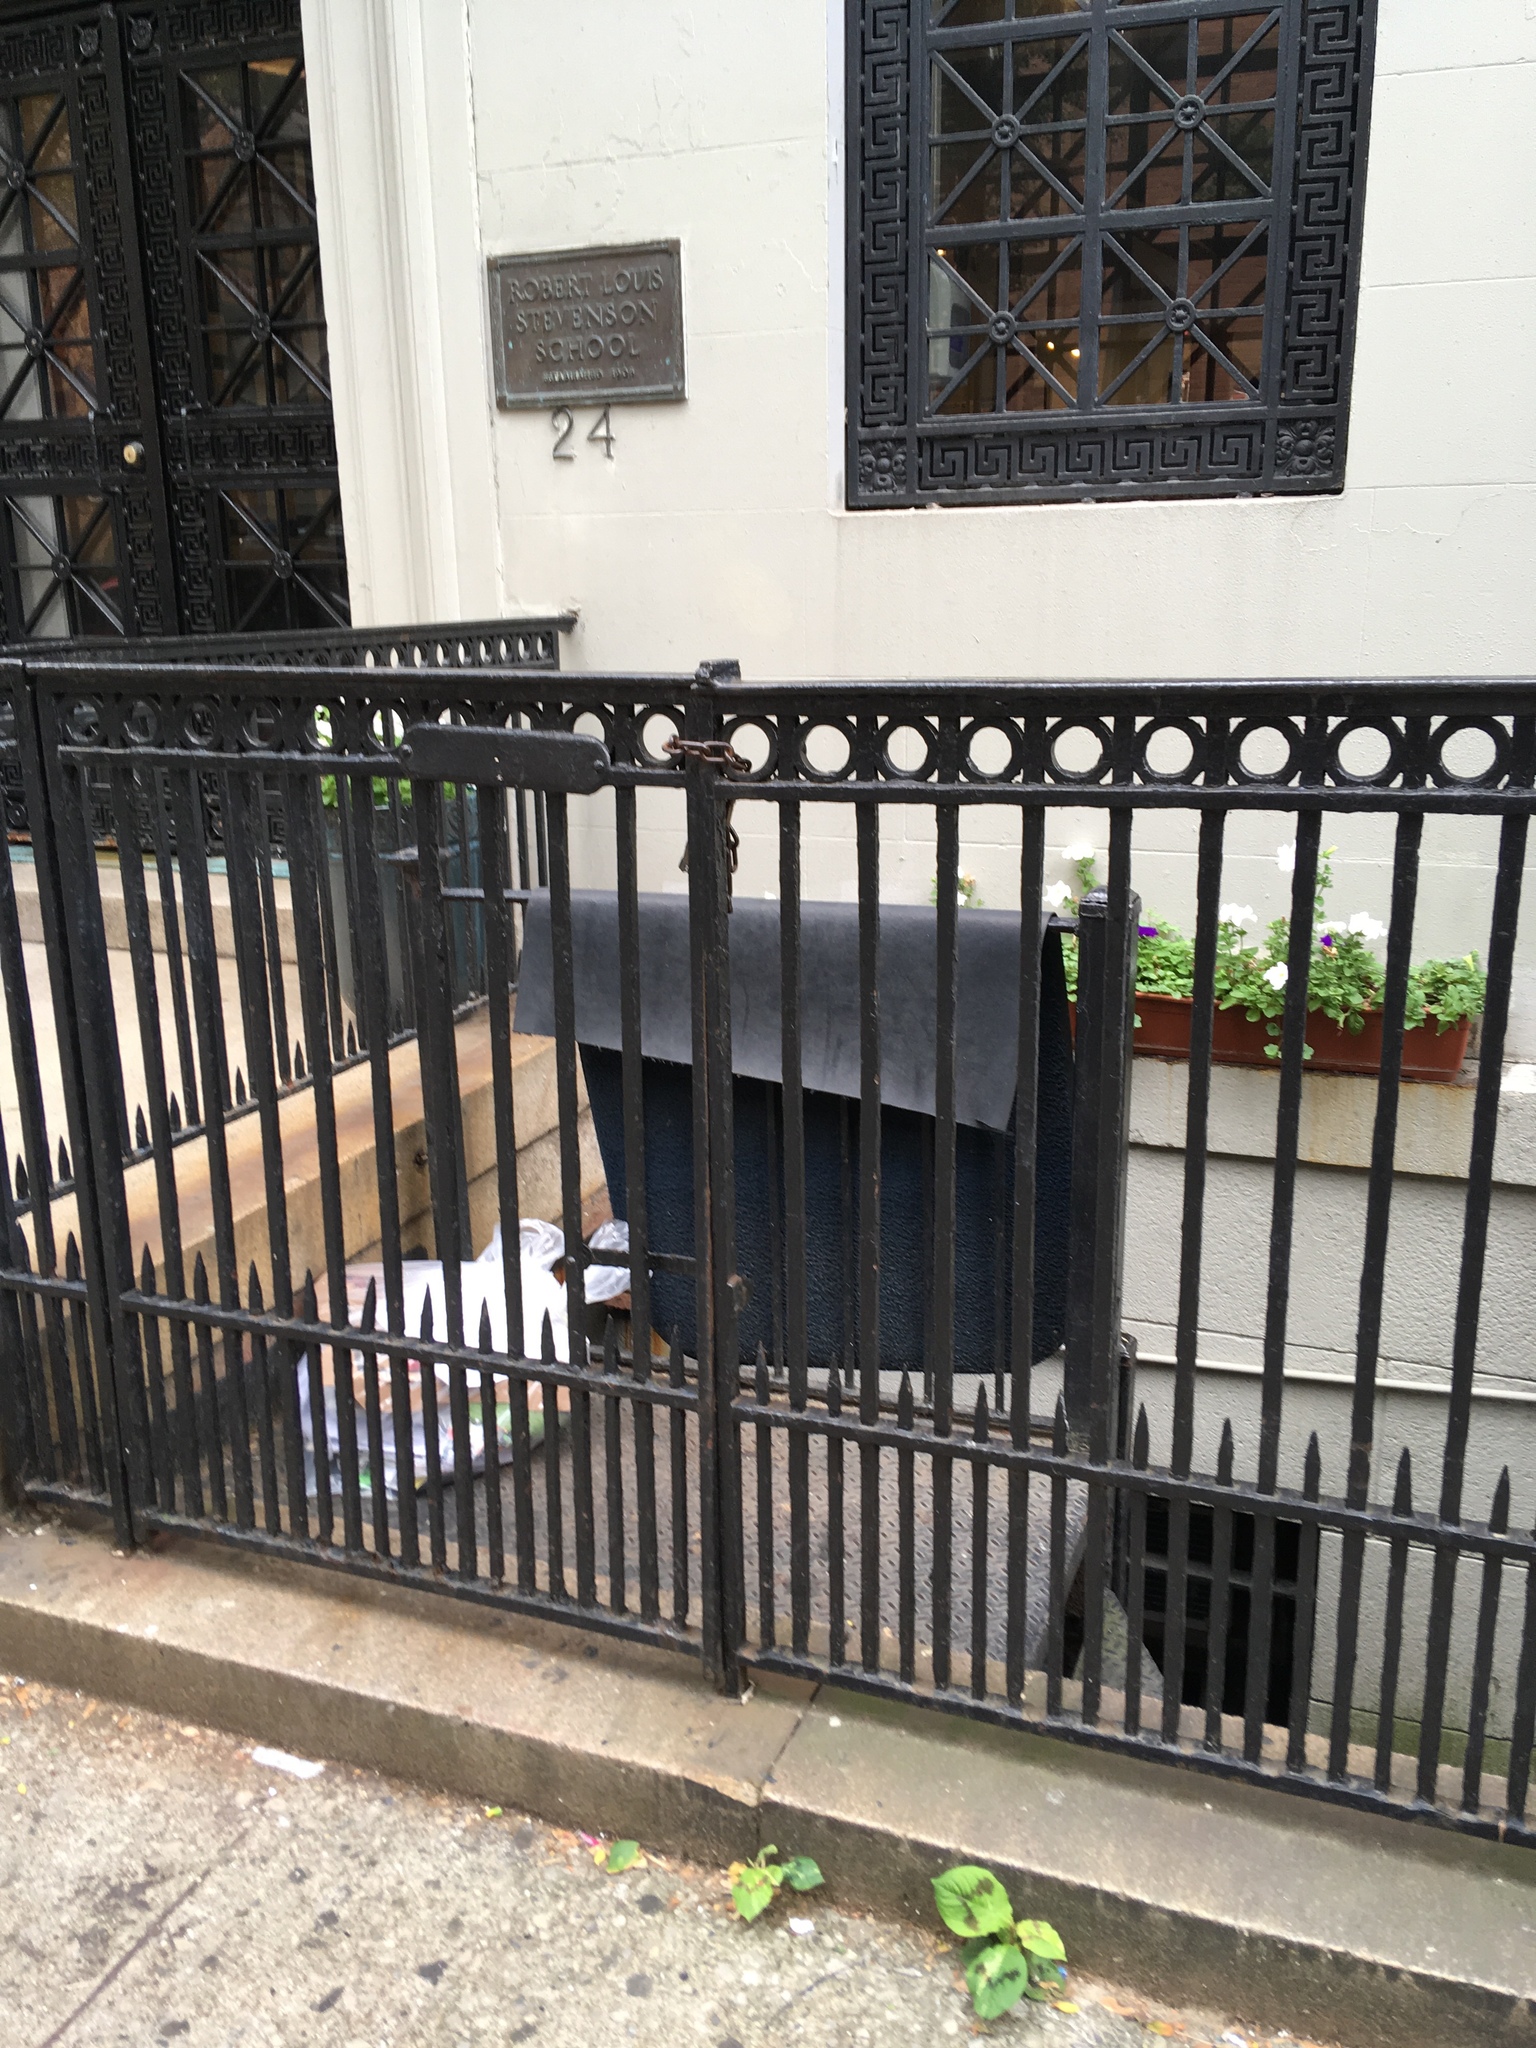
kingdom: Plantae
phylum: Tracheophyta
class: Magnoliopsida
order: Caryophyllales
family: Polygonaceae
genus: Persicaria
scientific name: Persicaria filiformis
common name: Asian jumpseed
